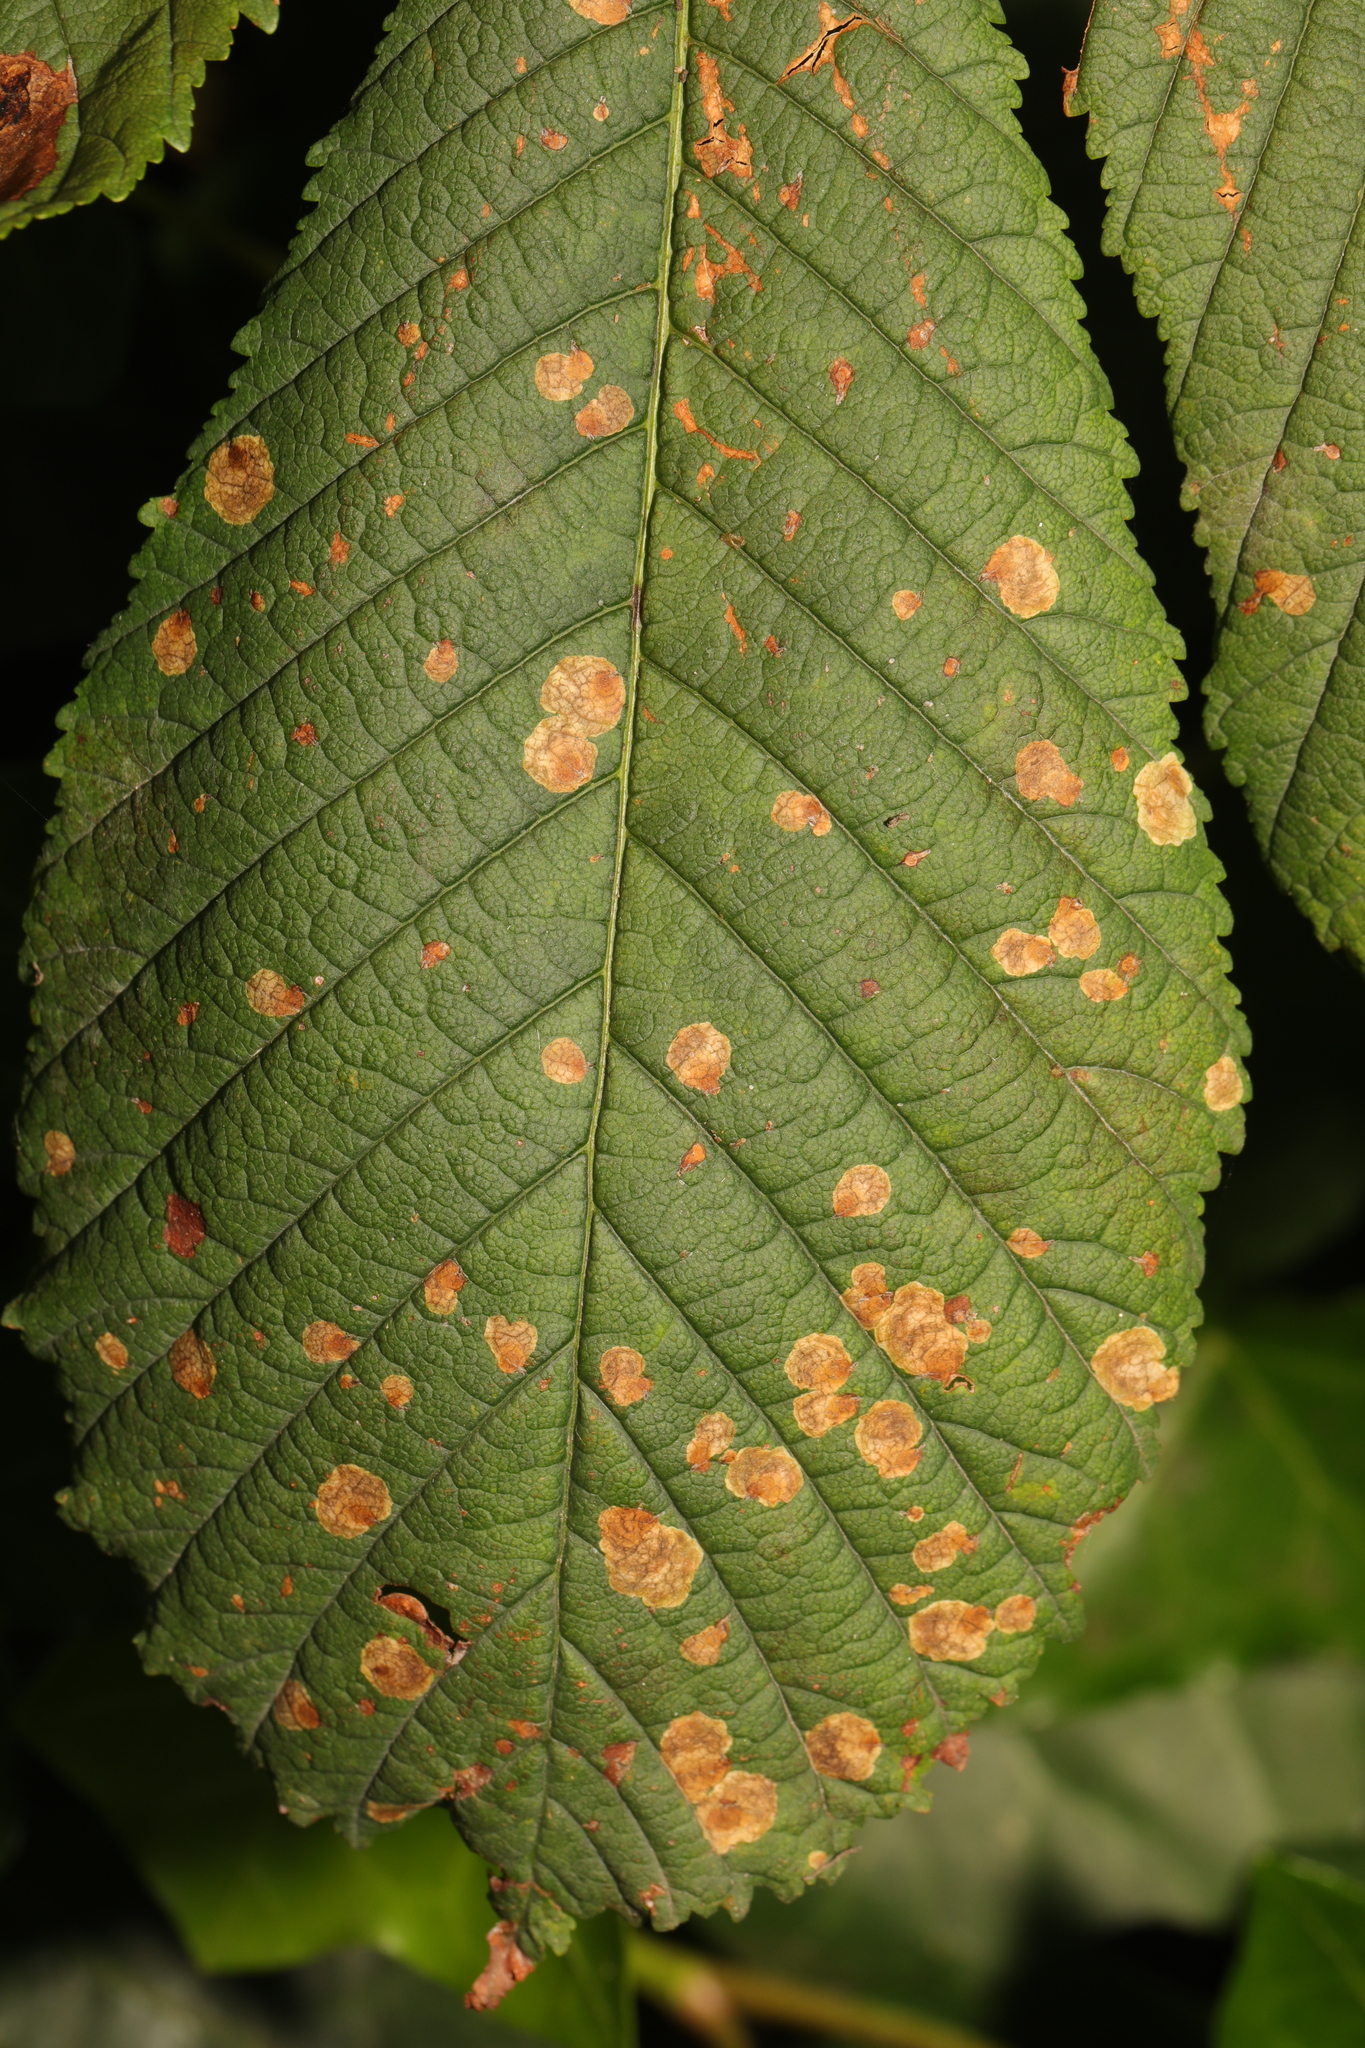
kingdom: Animalia
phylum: Arthropoda
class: Insecta
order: Lepidoptera
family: Gracillariidae
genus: Cameraria
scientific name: Cameraria ohridella
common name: Horse-chestnut leaf-miner
